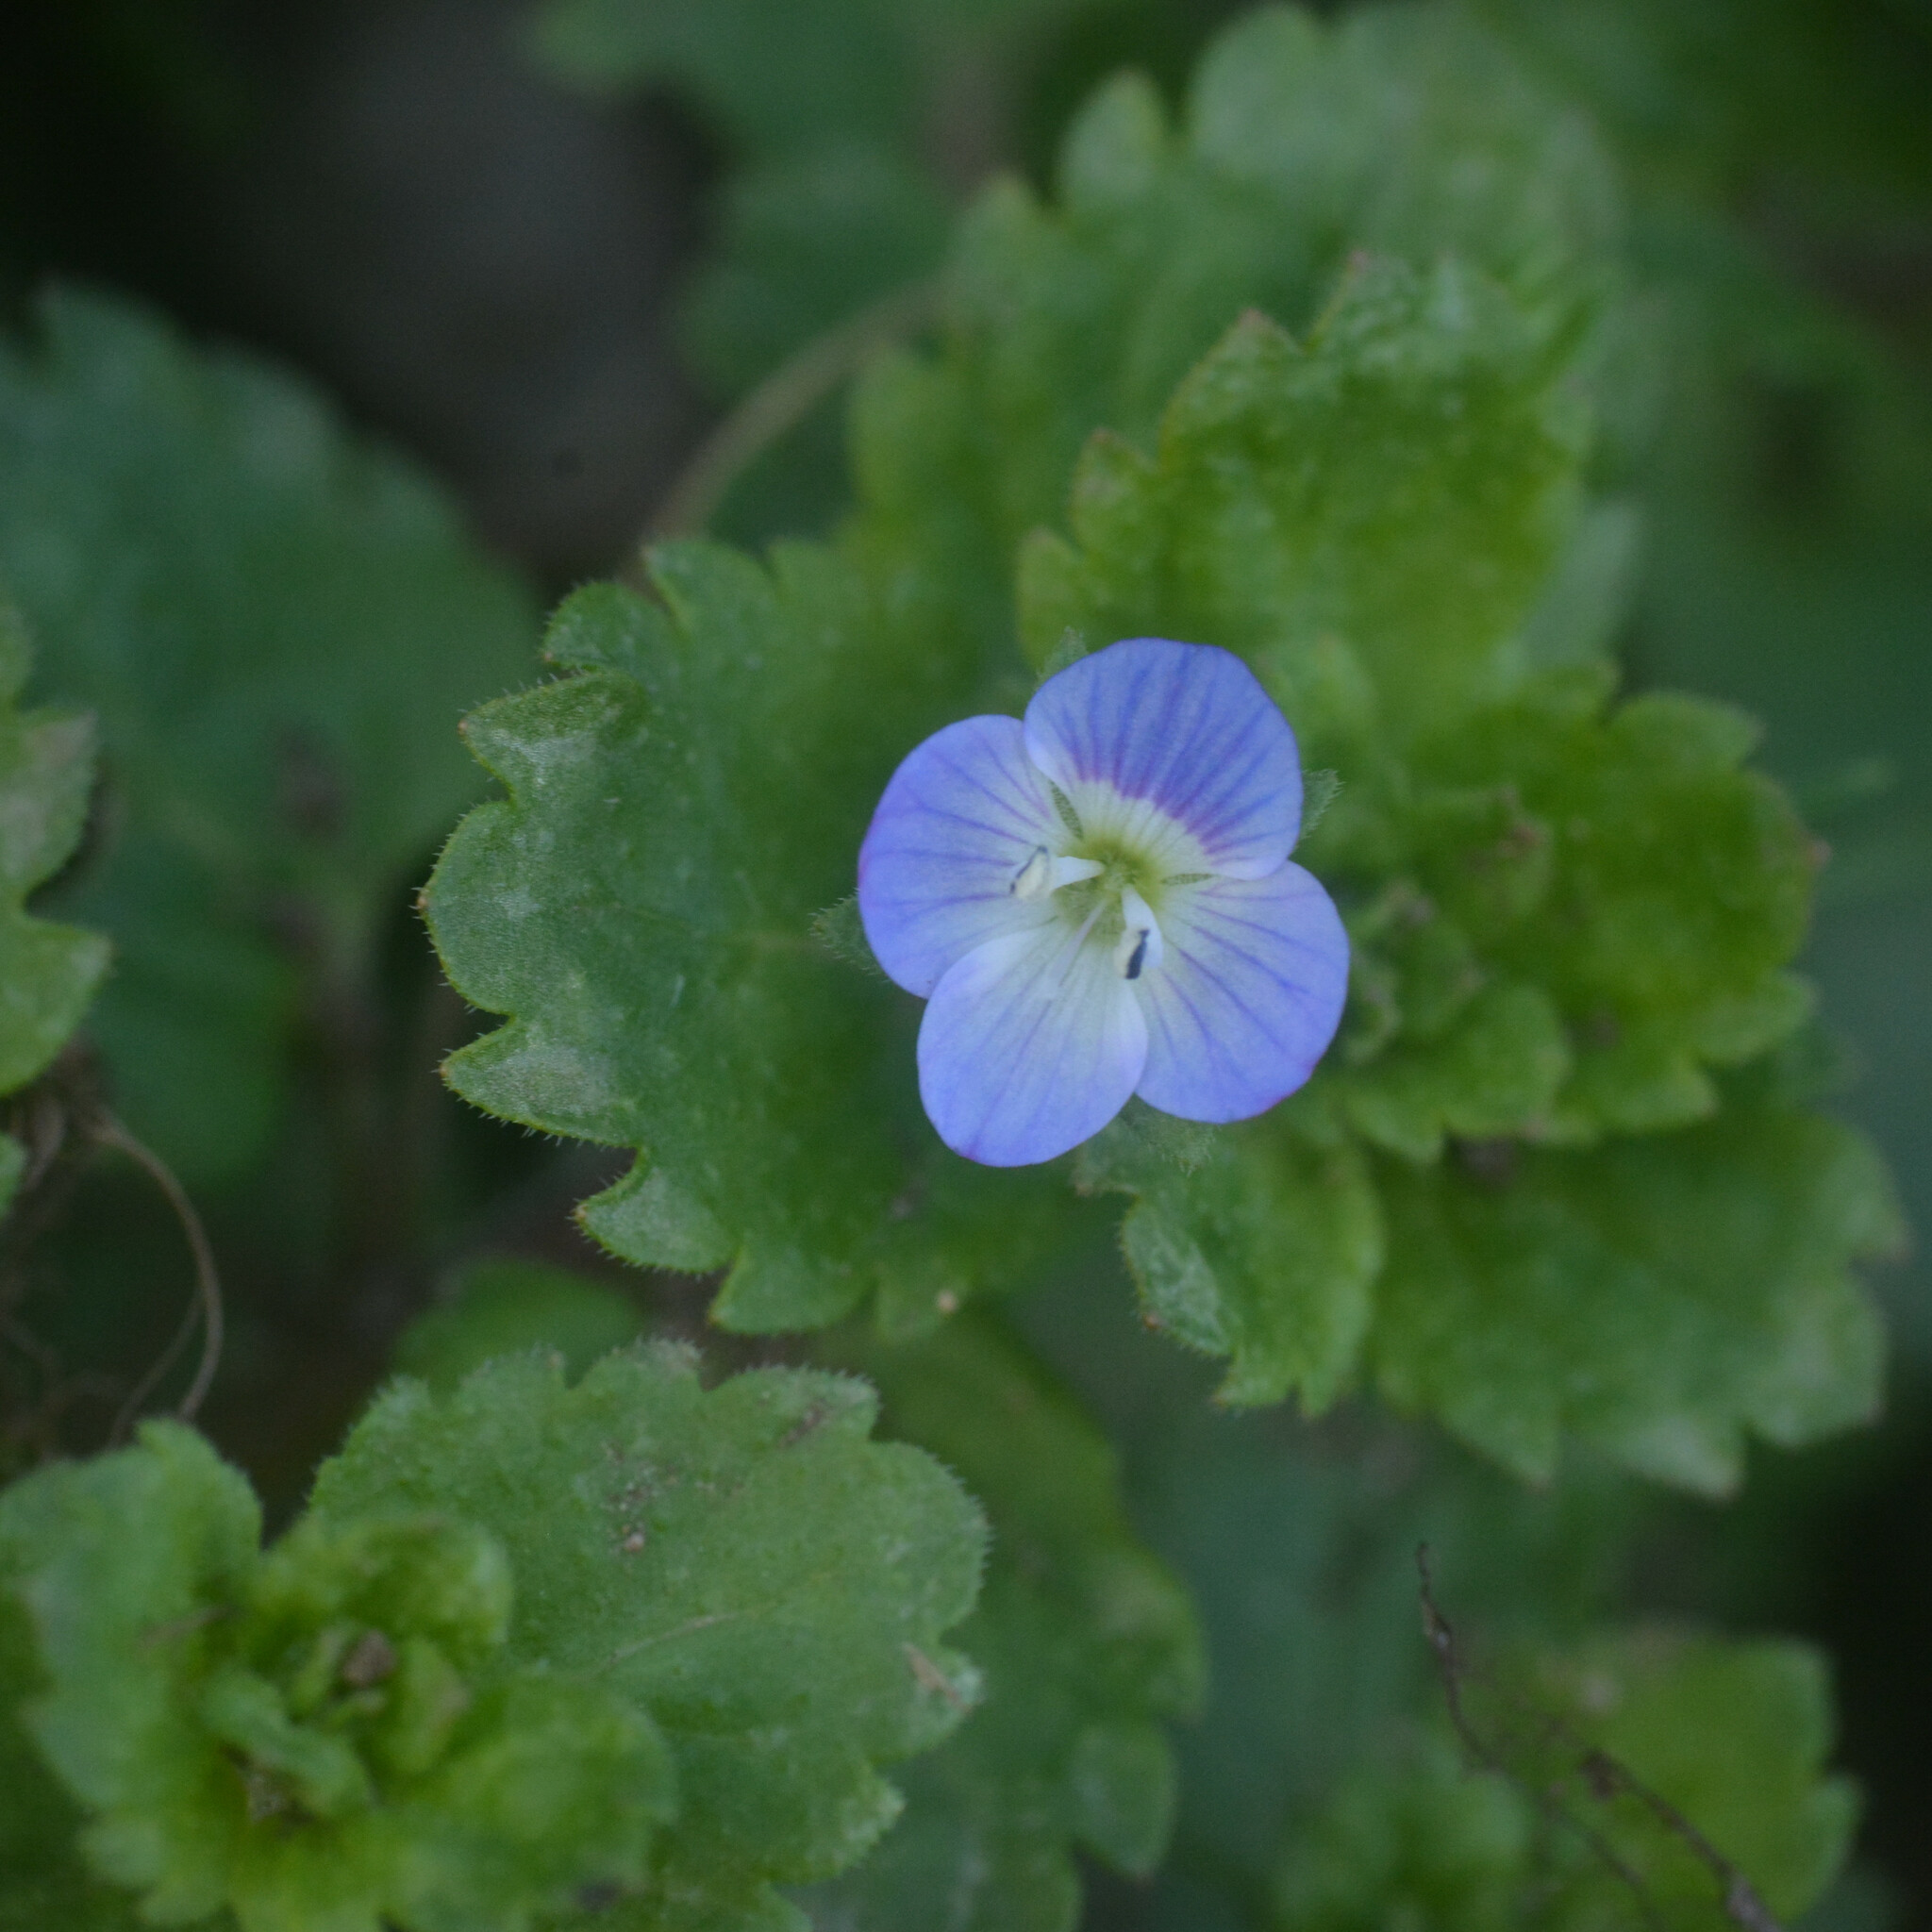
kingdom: Plantae
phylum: Tracheophyta
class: Magnoliopsida
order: Lamiales
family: Plantaginaceae
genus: Veronica
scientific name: Veronica persica
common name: Common field-speedwell
